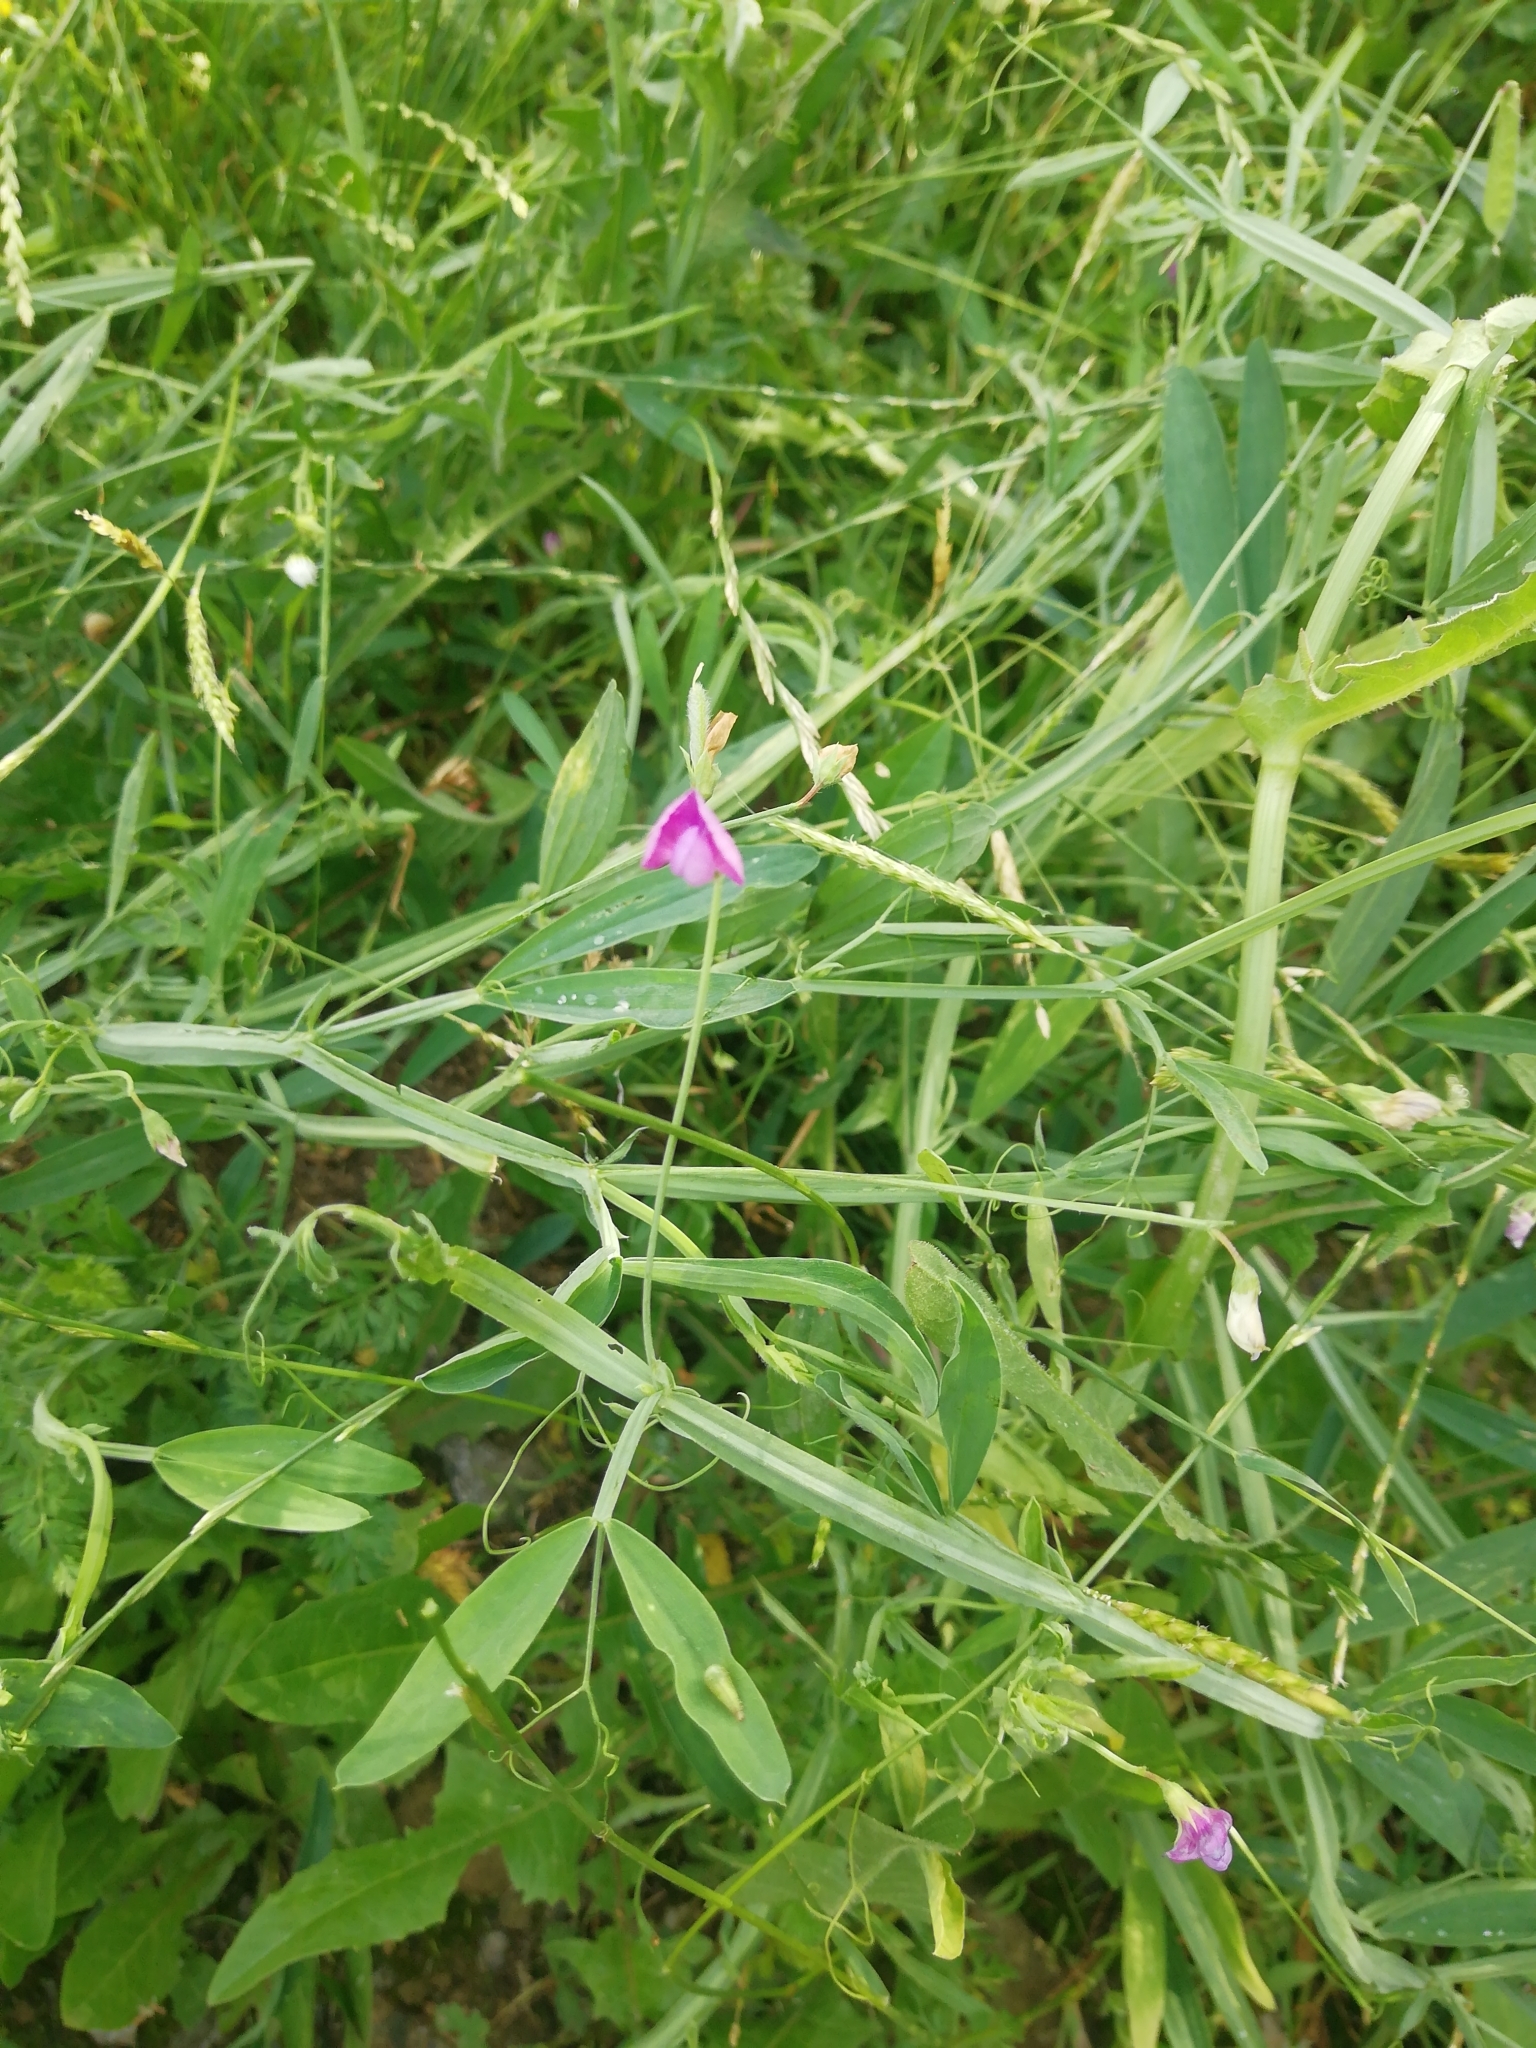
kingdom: Plantae
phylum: Tracheophyta
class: Magnoliopsida
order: Fabales
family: Fabaceae
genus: Lathyrus
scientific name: Lathyrus hirsutus
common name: Hairy vetchling
